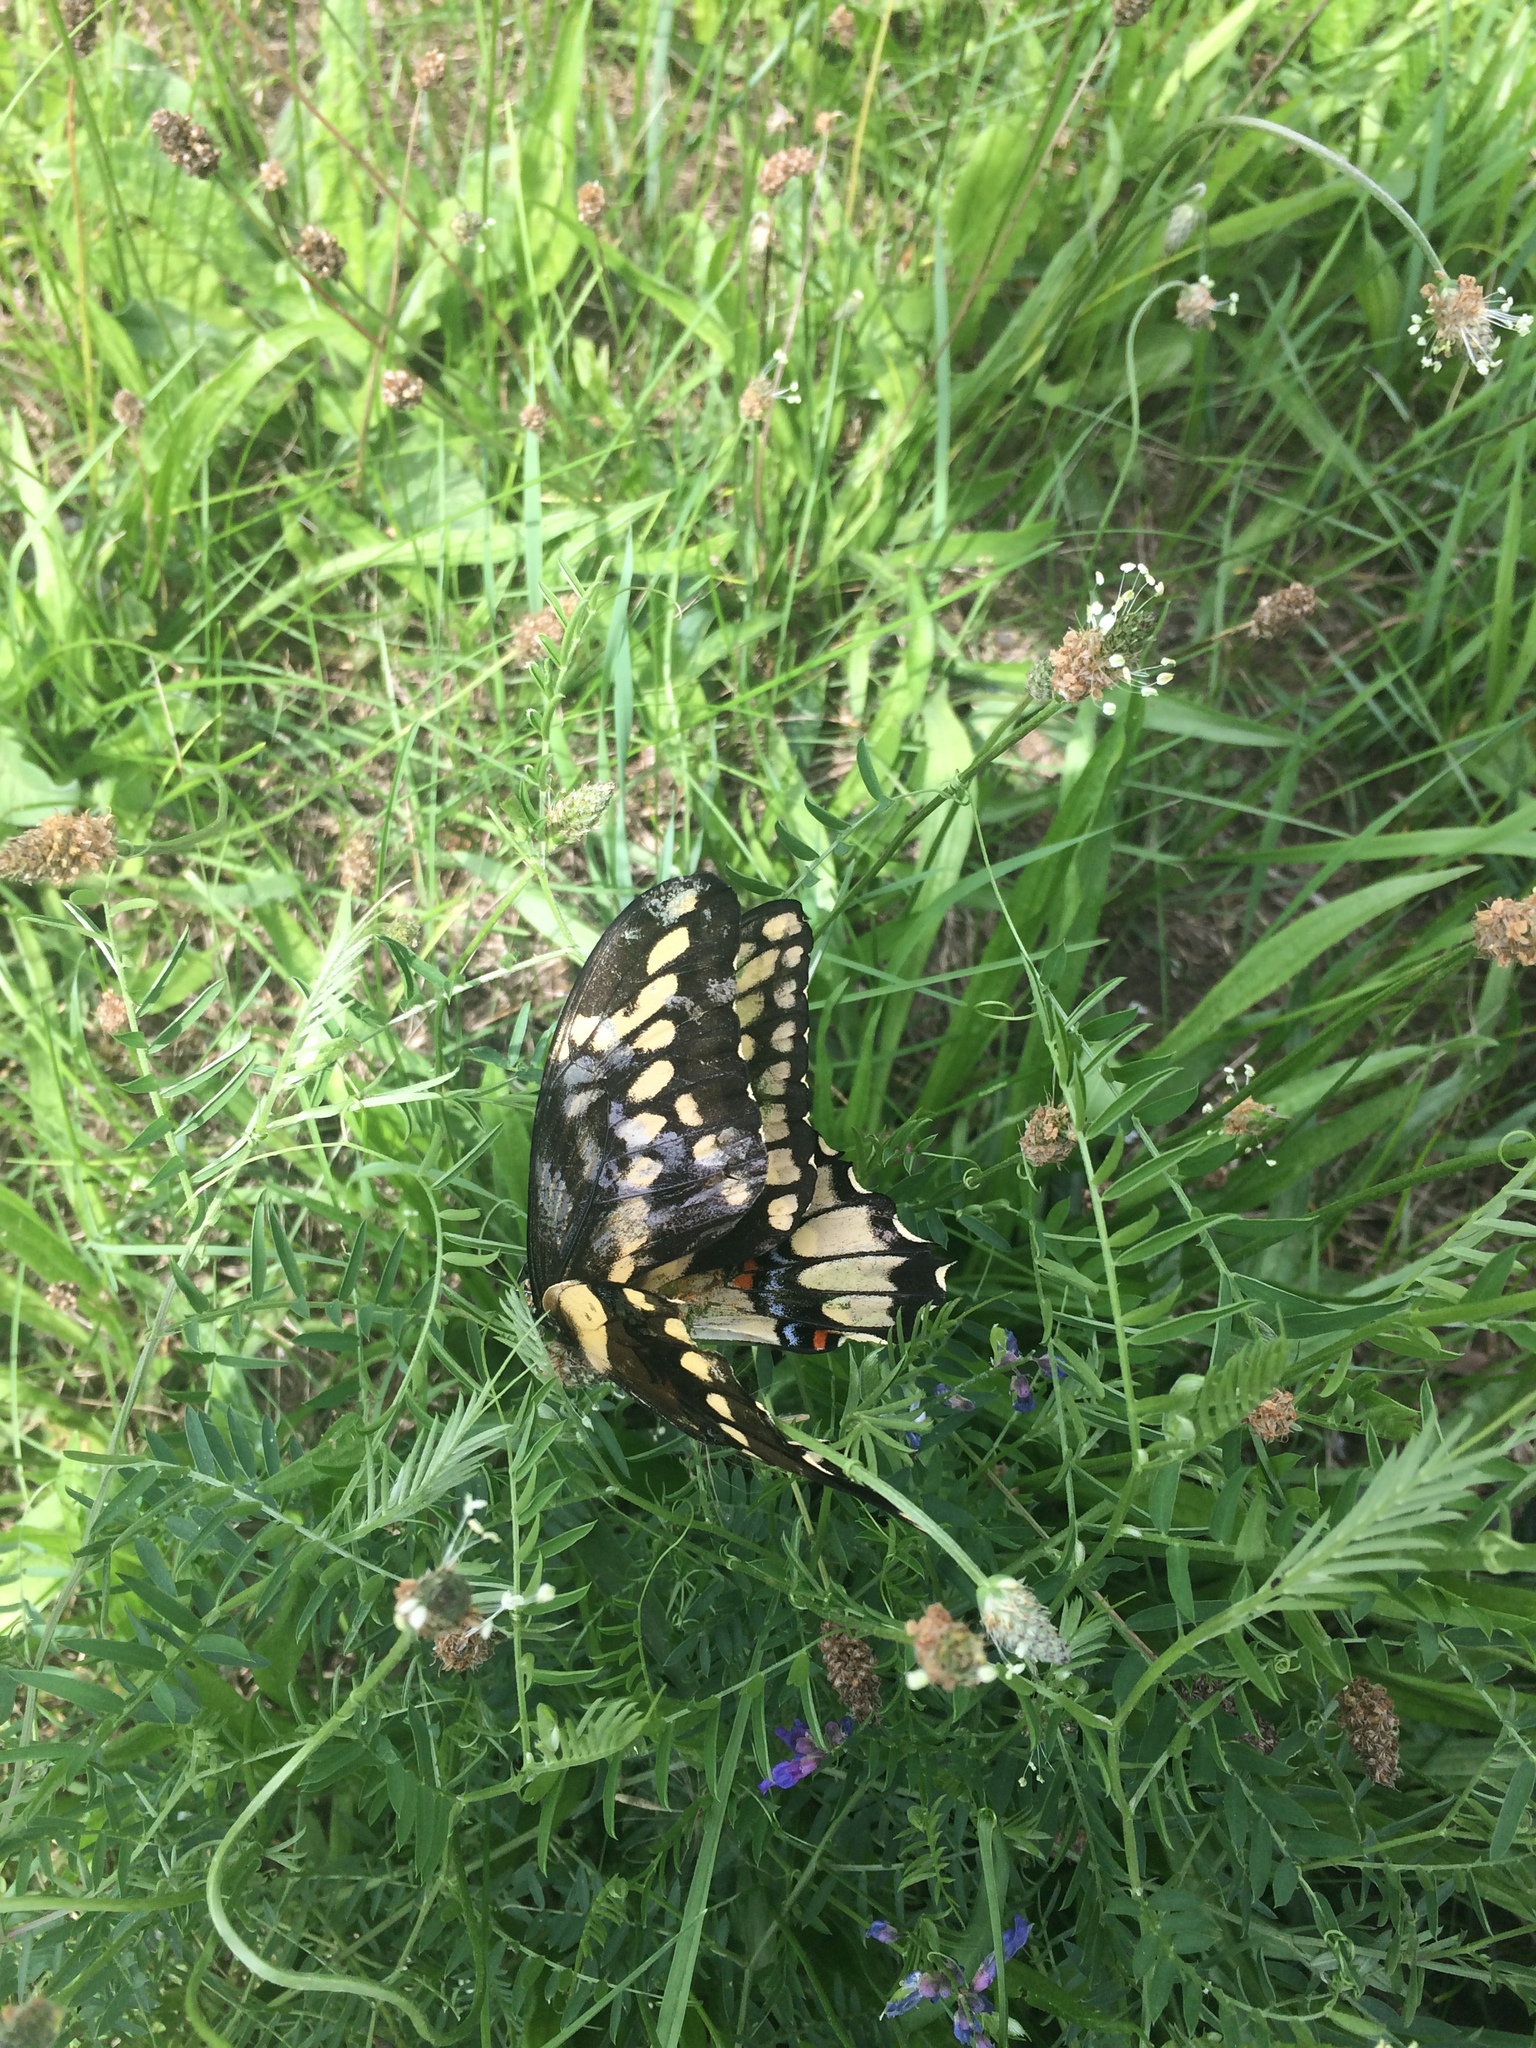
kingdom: Animalia
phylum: Arthropoda
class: Insecta
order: Lepidoptera
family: Papilionidae
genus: Papilio
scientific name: Papilio cresphontes
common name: Giant swallowtail
